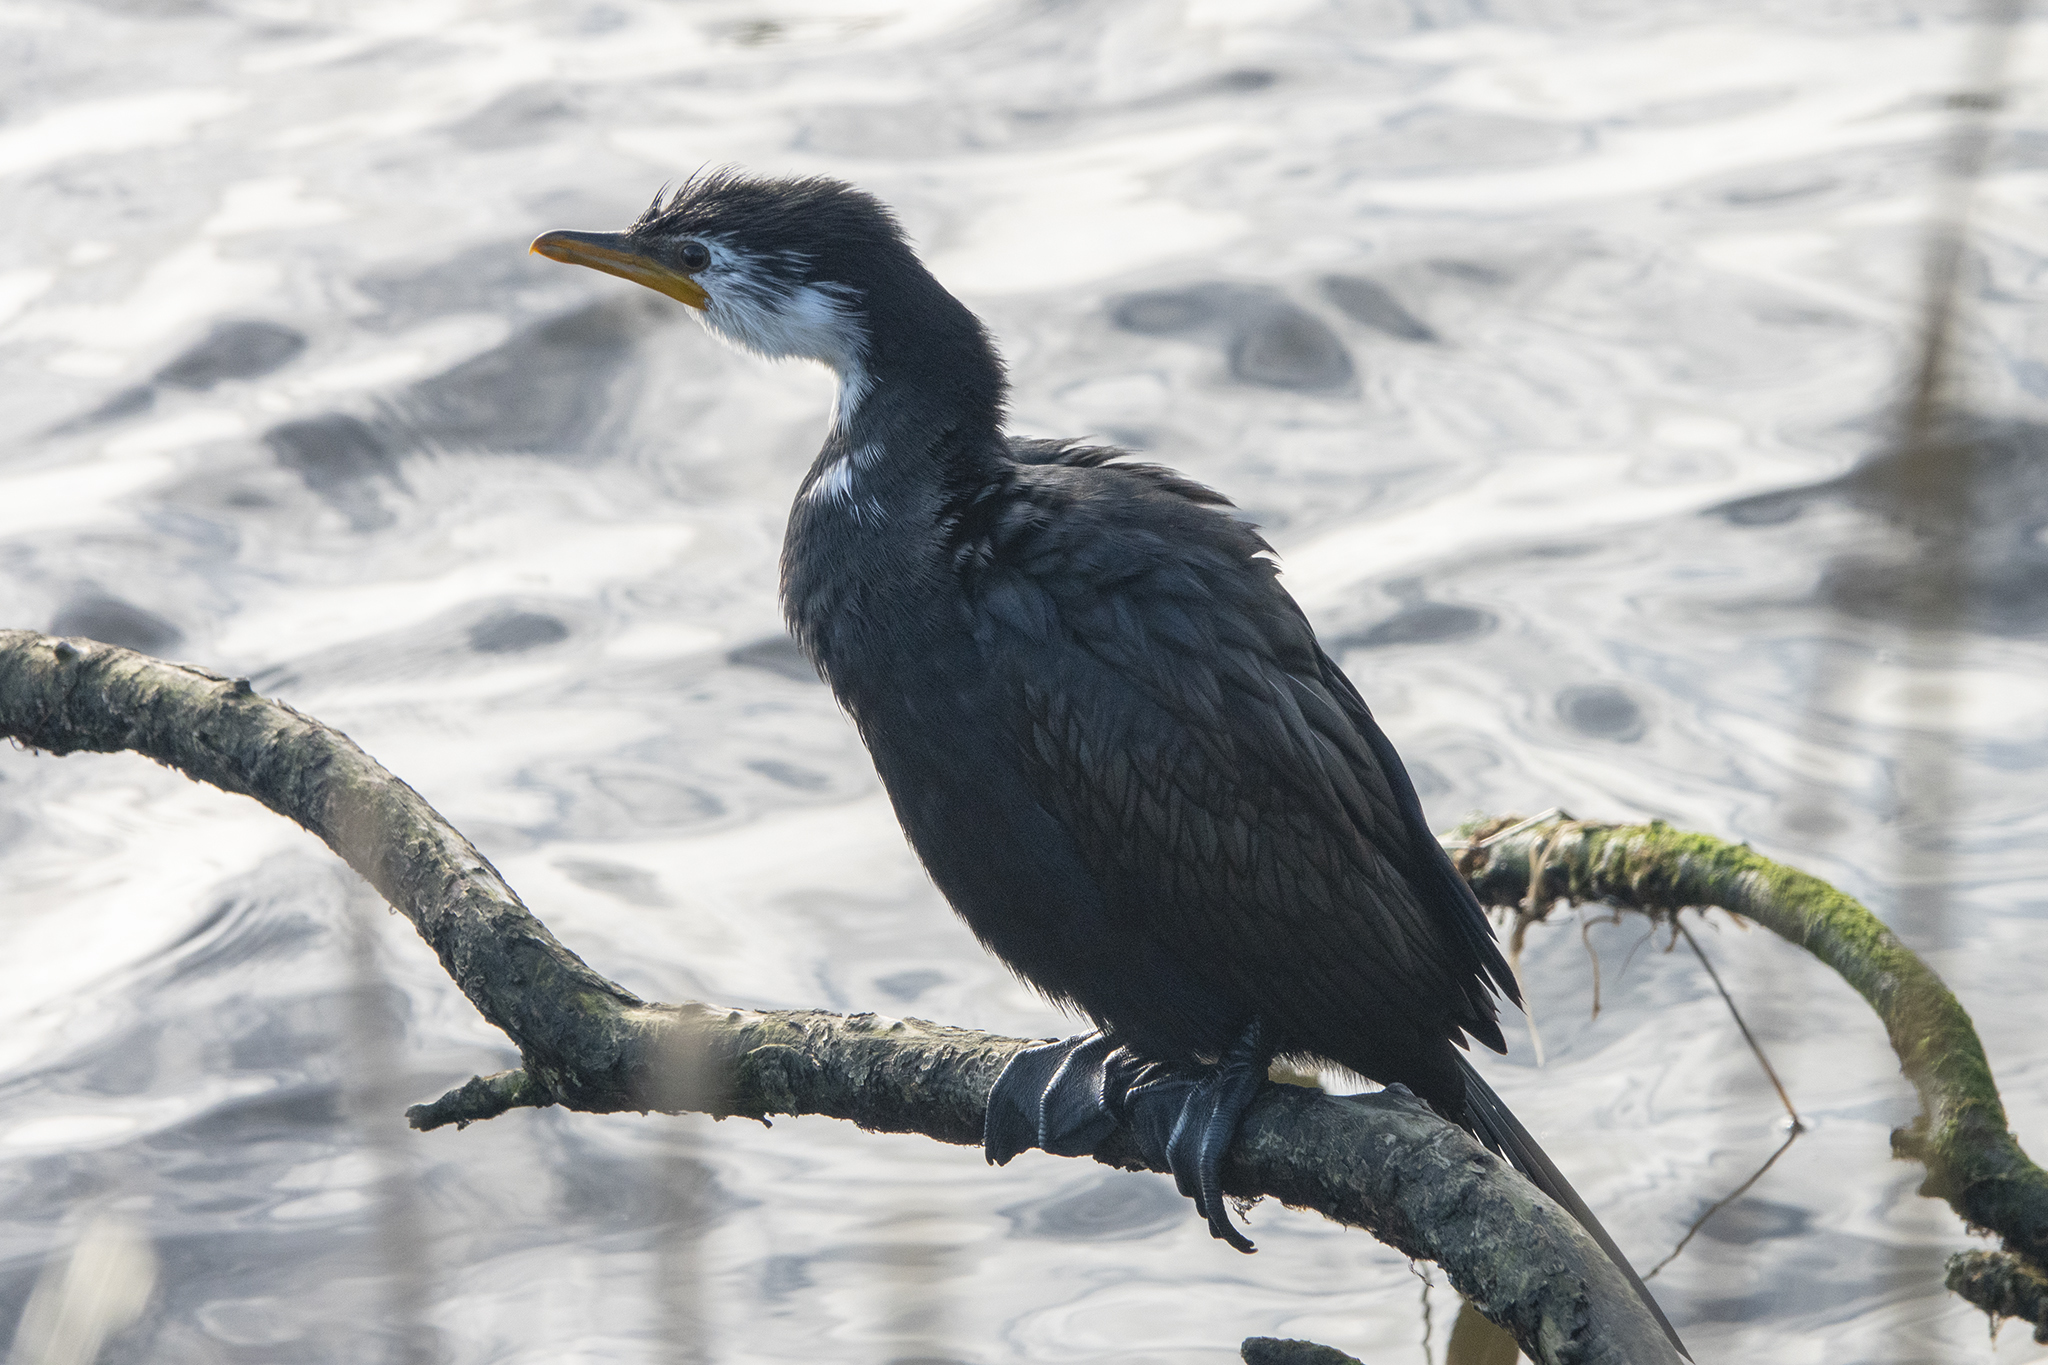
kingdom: Animalia
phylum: Chordata
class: Aves
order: Suliformes
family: Phalacrocoracidae
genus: Microcarbo
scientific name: Microcarbo melanoleucos
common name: Little pied cormorant
